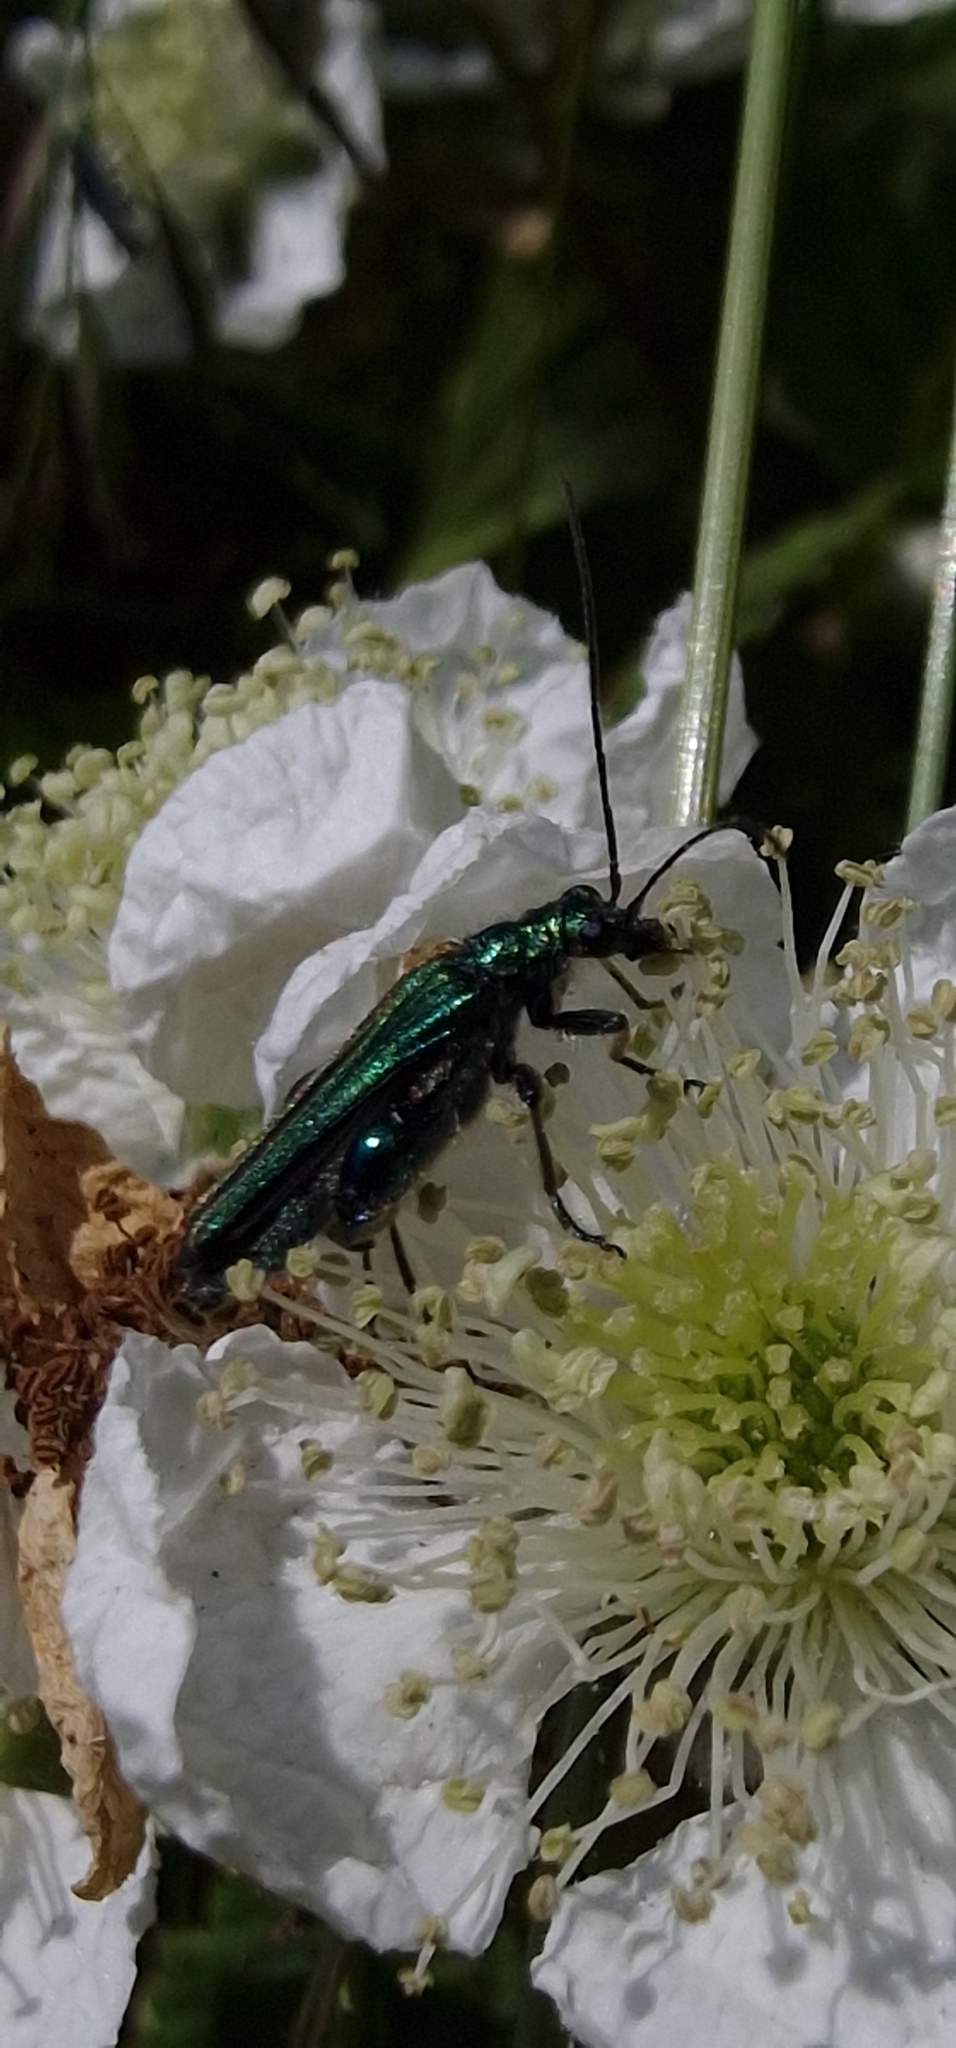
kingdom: Animalia
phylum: Arthropoda
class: Insecta
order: Coleoptera
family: Oedemeridae
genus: Oedemera
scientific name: Oedemera nobilis
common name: Swollen-thighed beetle
